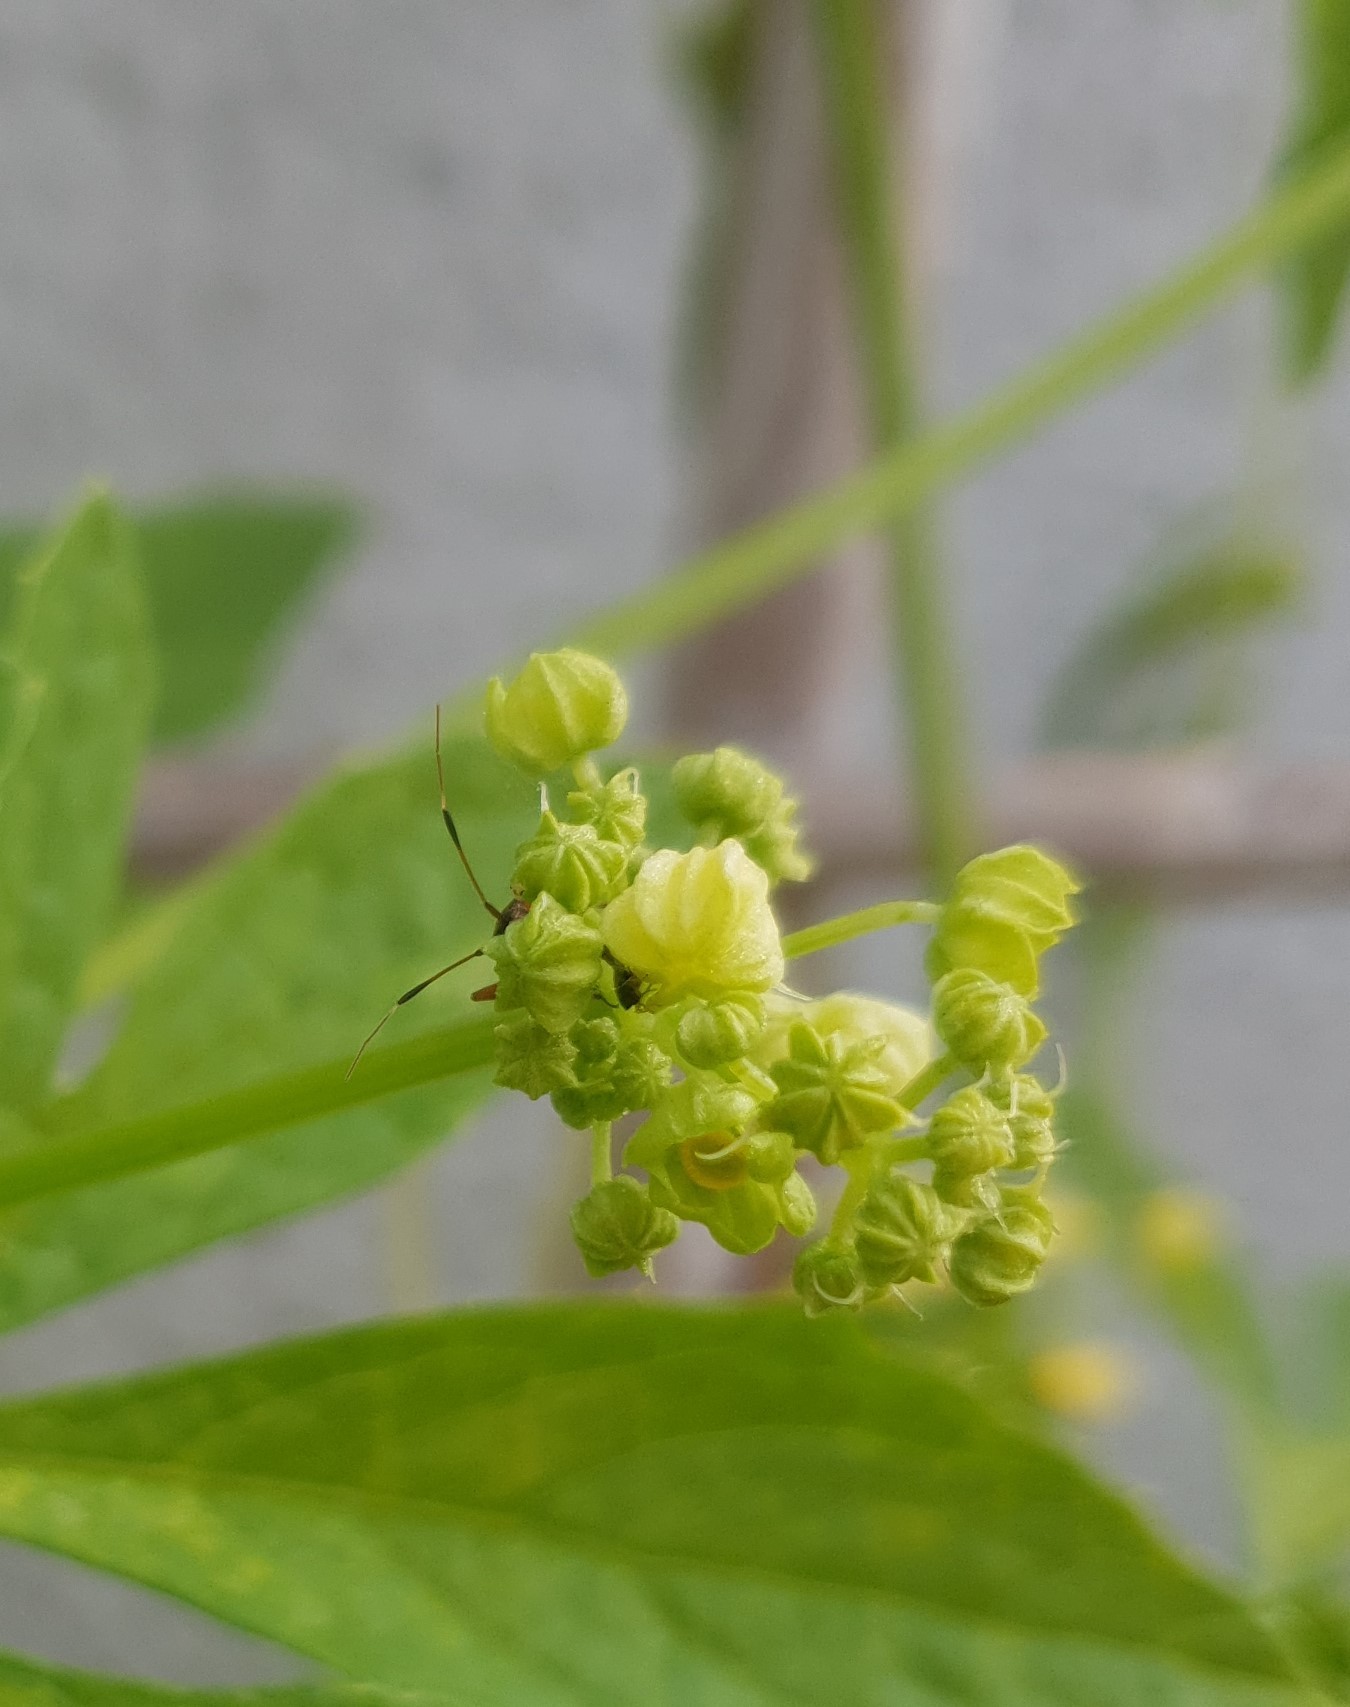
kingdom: Animalia
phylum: Arthropoda
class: Insecta
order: Hemiptera
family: Miridae
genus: Closterotomus
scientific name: Closterotomus biclavatus
